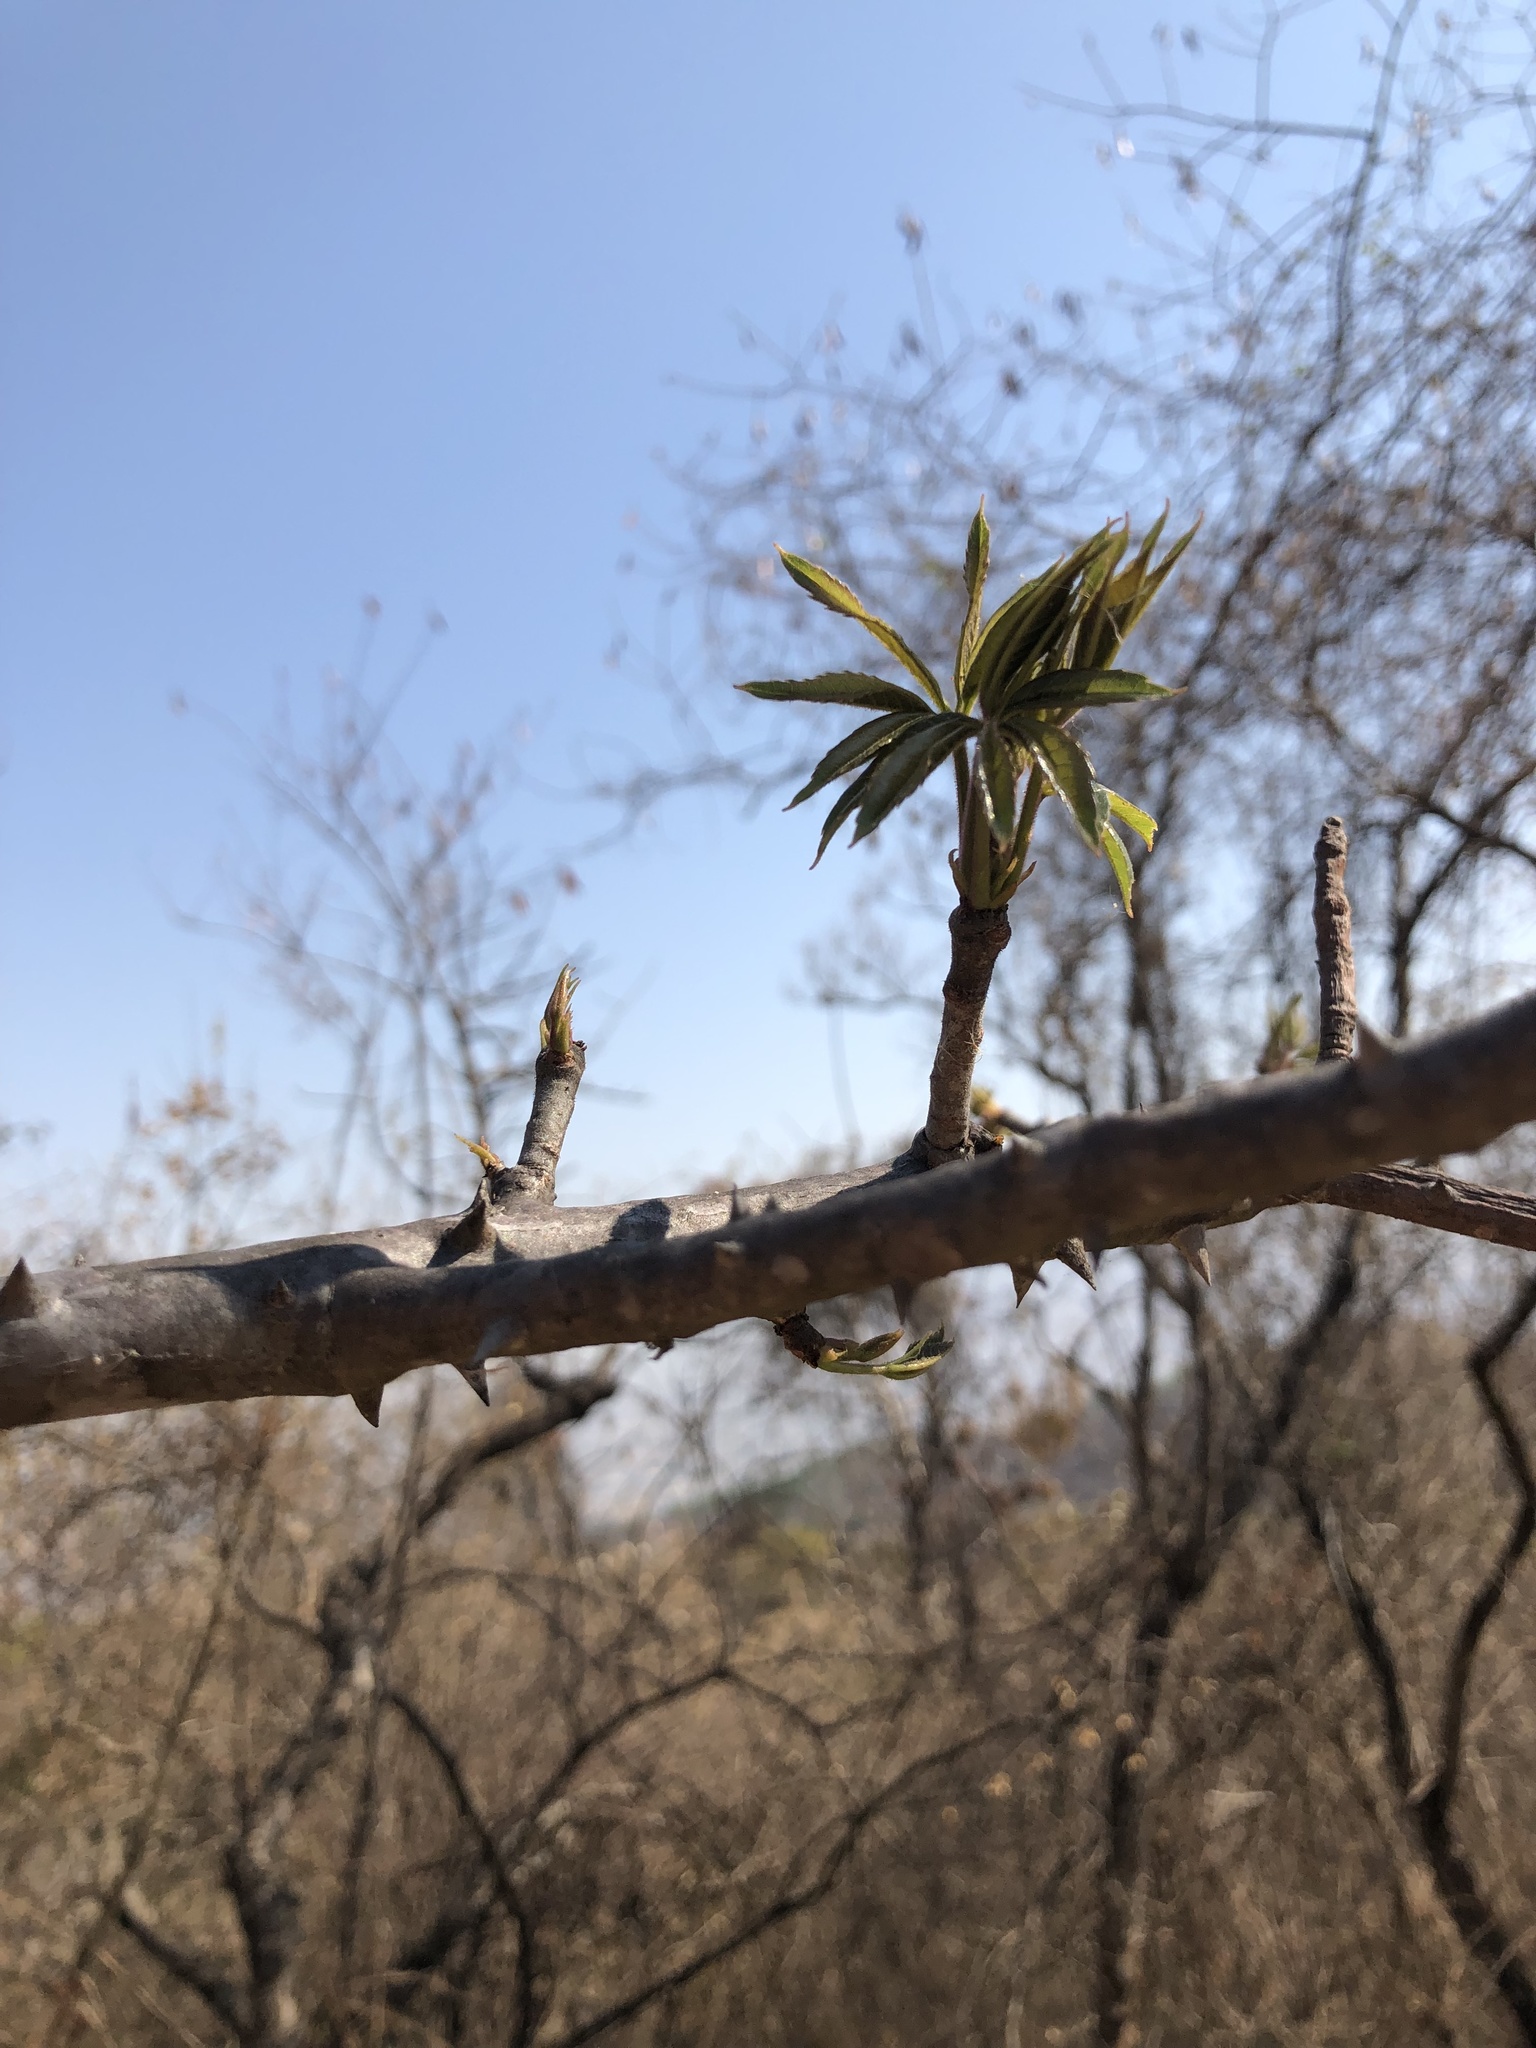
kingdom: Plantae
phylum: Tracheophyta
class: Magnoliopsida
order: Malvales
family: Malvaceae
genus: Ceiba
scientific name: Ceiba aesculifolia
